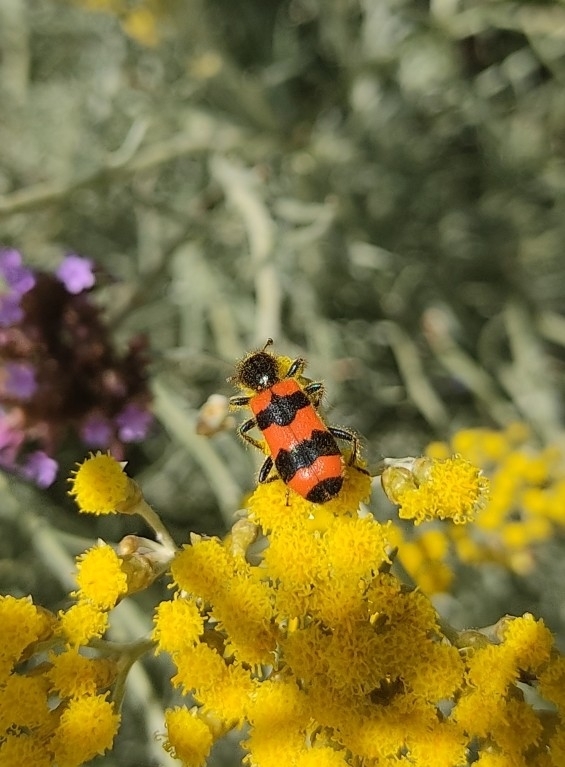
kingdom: Animalia
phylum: Arthropoda
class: Insecta
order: Coleoptera
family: Cleridae
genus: Trichodes
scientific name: Trichodes apiarius
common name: Bee-eating beetle
